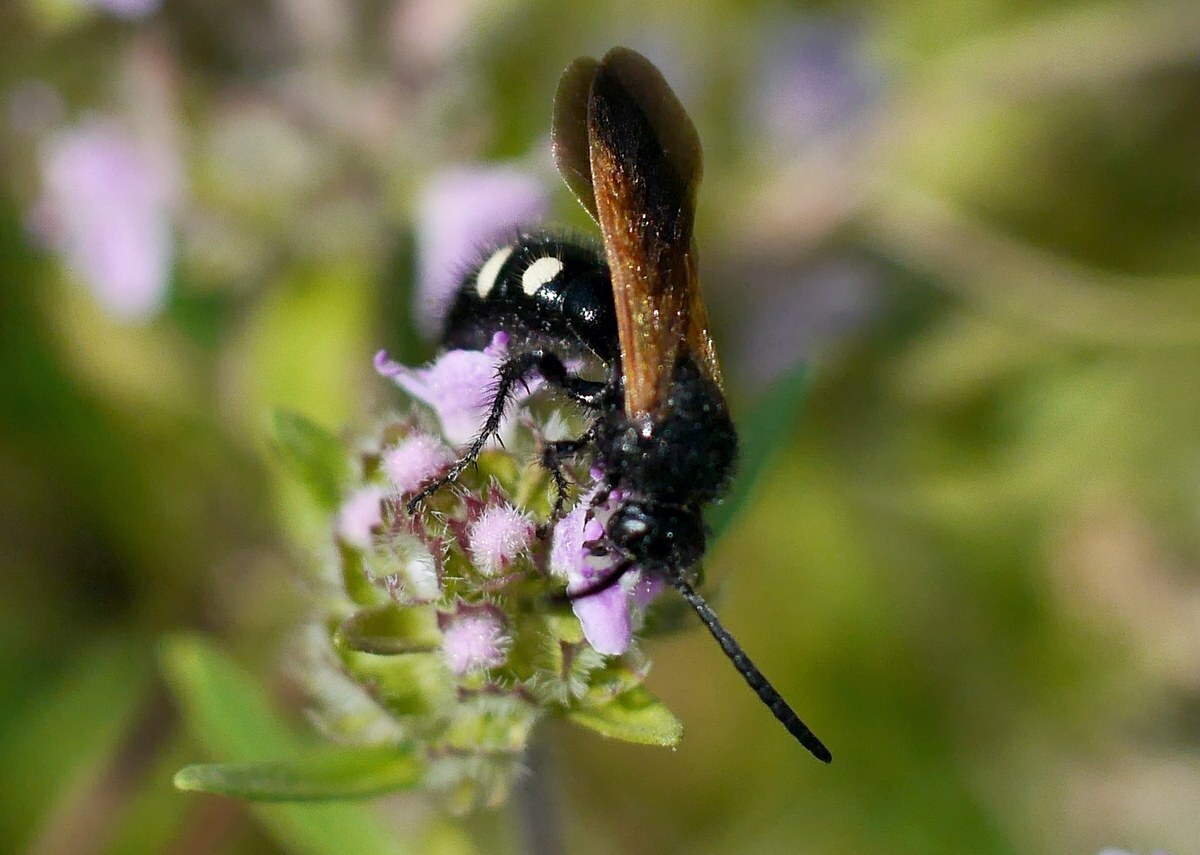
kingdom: Animalia
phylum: Arthropoda
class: Insecta
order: Hymenoptera
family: Vespidae
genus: Vespa
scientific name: Vespa sexmaculata
